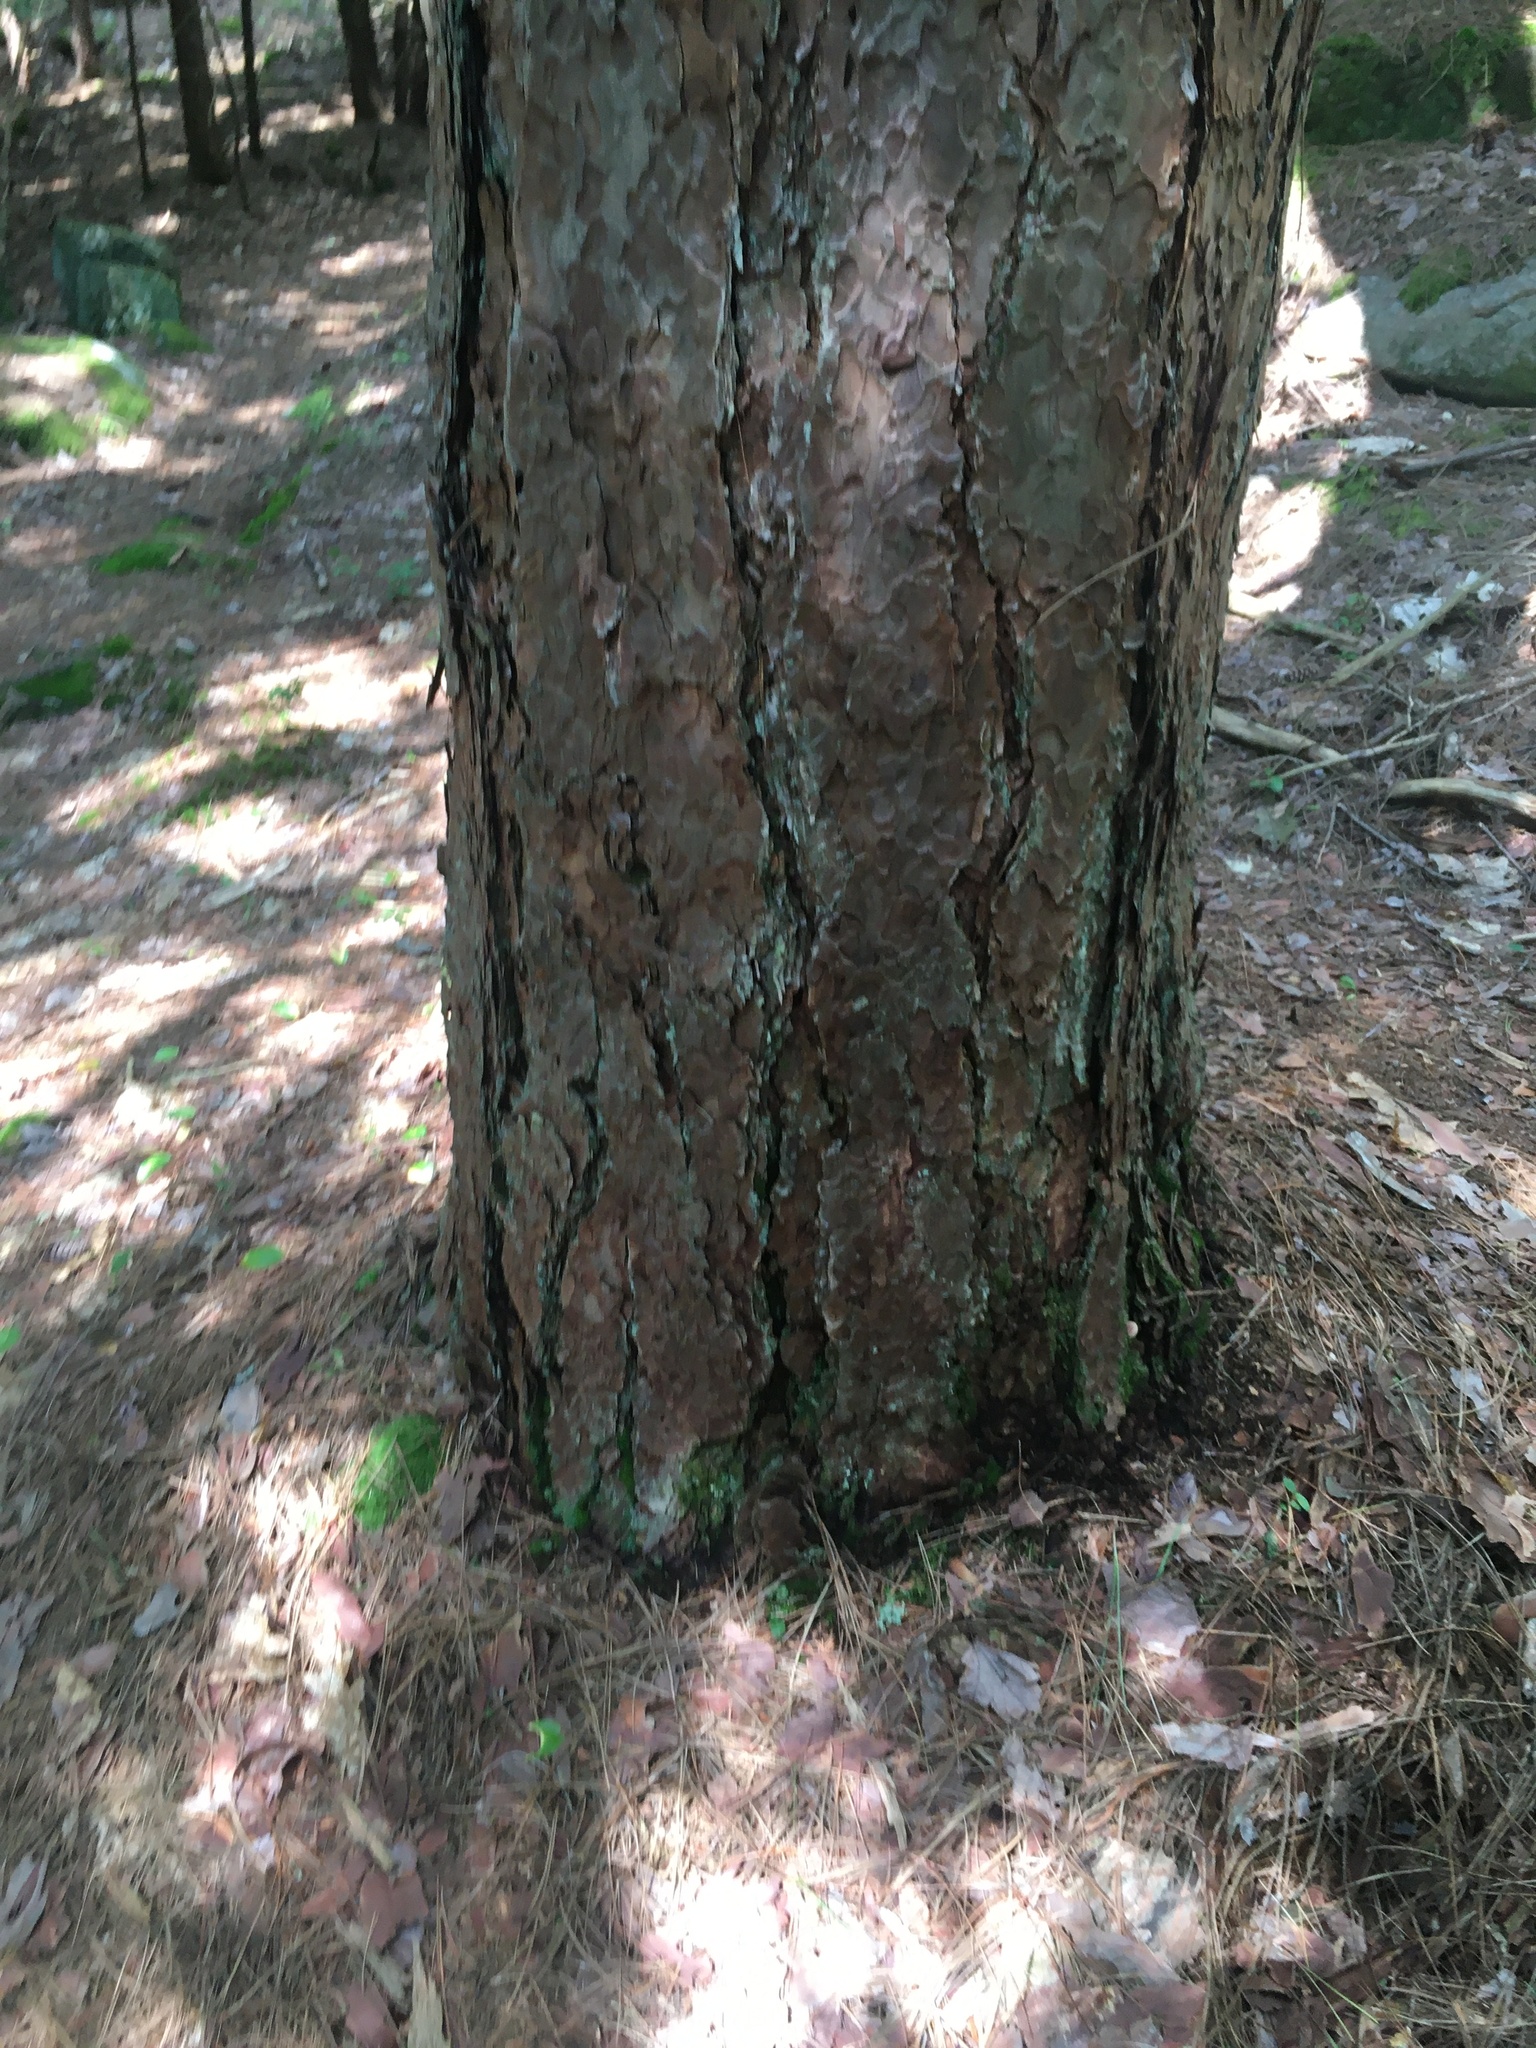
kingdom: Plantae
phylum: Tracheophyta
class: Pinopsida
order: Pinales
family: Pinaceae
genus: Pinus
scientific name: Pinus resinosa
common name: Norway pine
